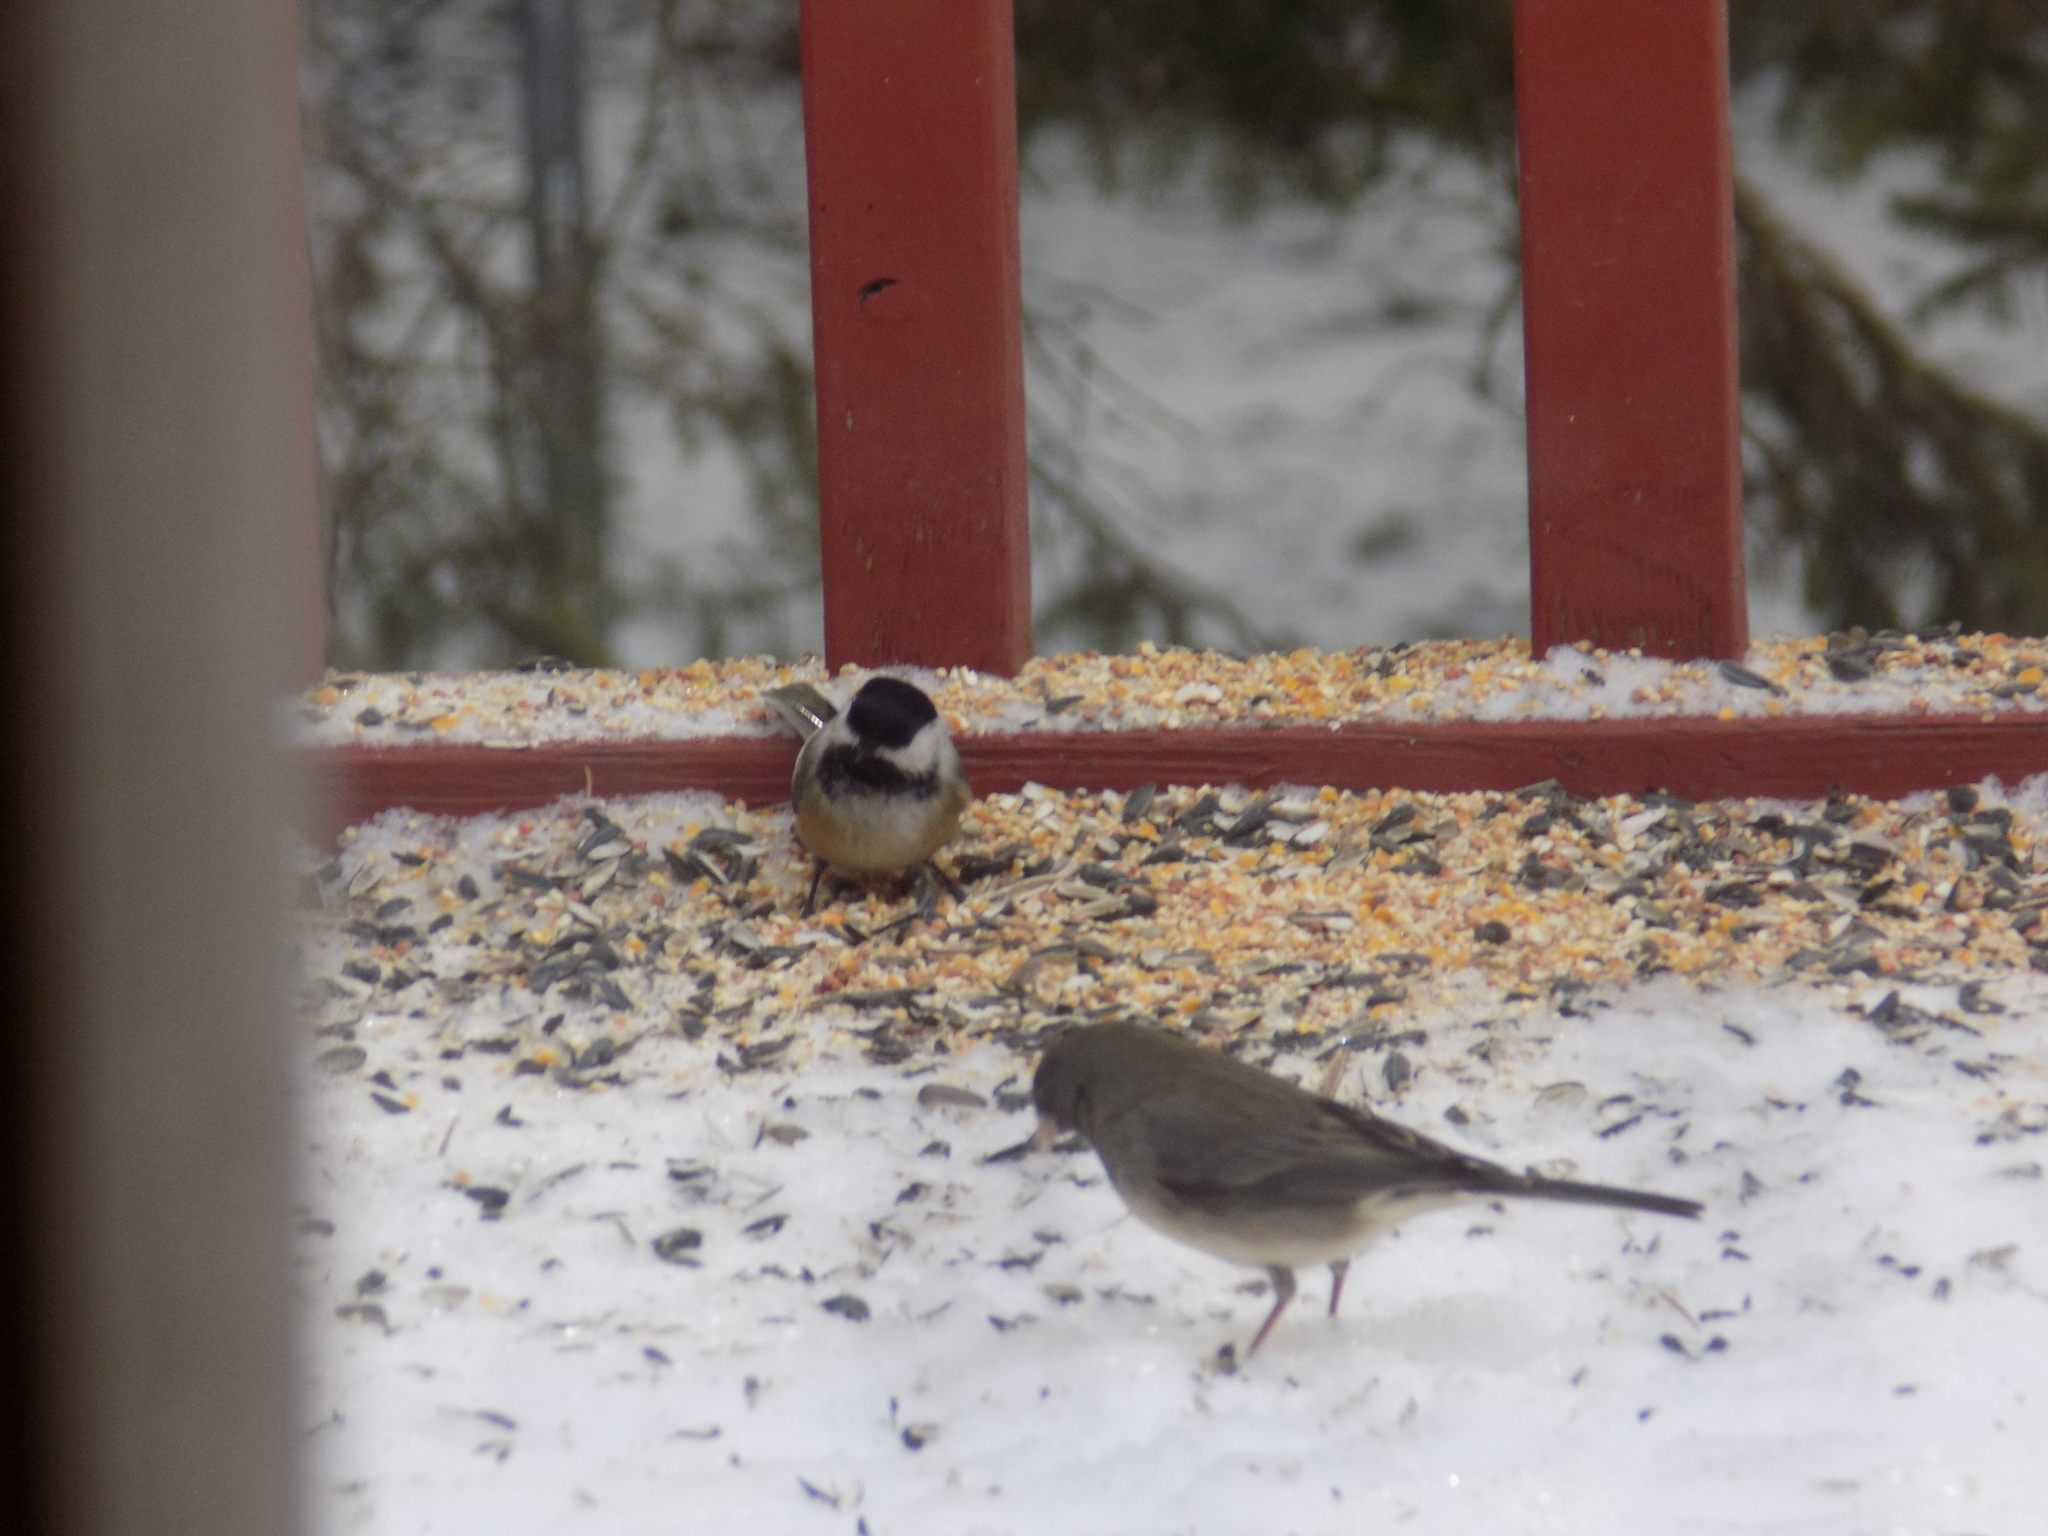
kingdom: Animalia
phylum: Chordata
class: Aves
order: Passeriformes
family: Paridae
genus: Poecile
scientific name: Poecile atricapillus
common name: Black-capped chickadee
